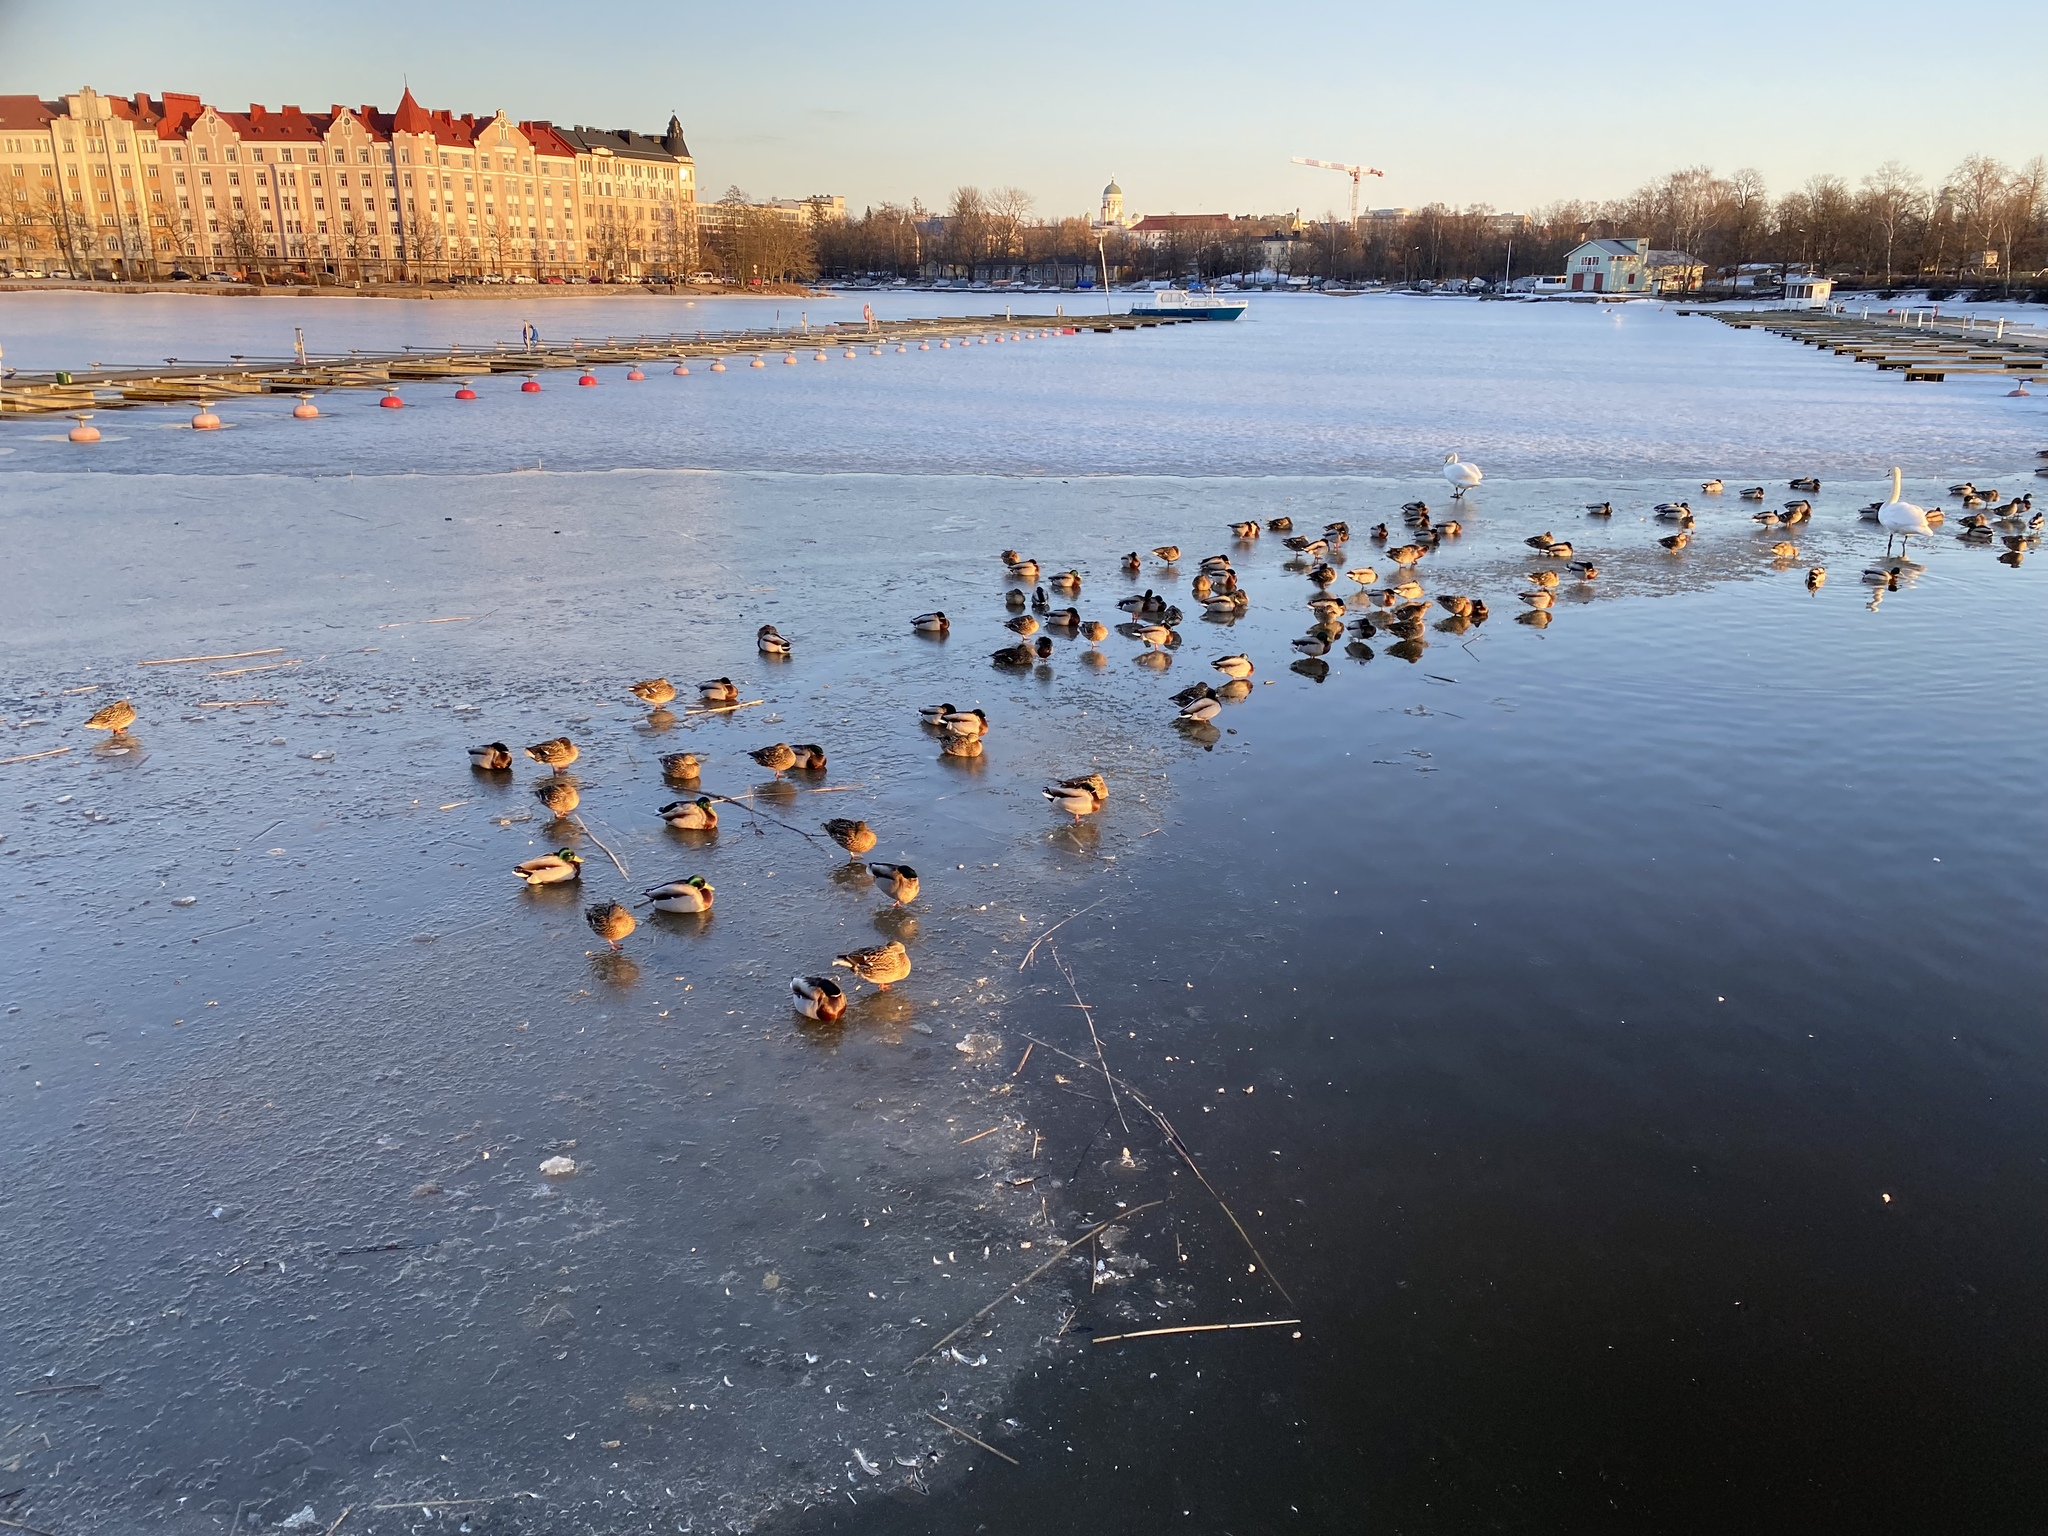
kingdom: Animalia
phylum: Chordata
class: Aves
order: Anseriformes
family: Anatidae
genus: Cygnus
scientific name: Cygnus olor
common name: Mute swan
